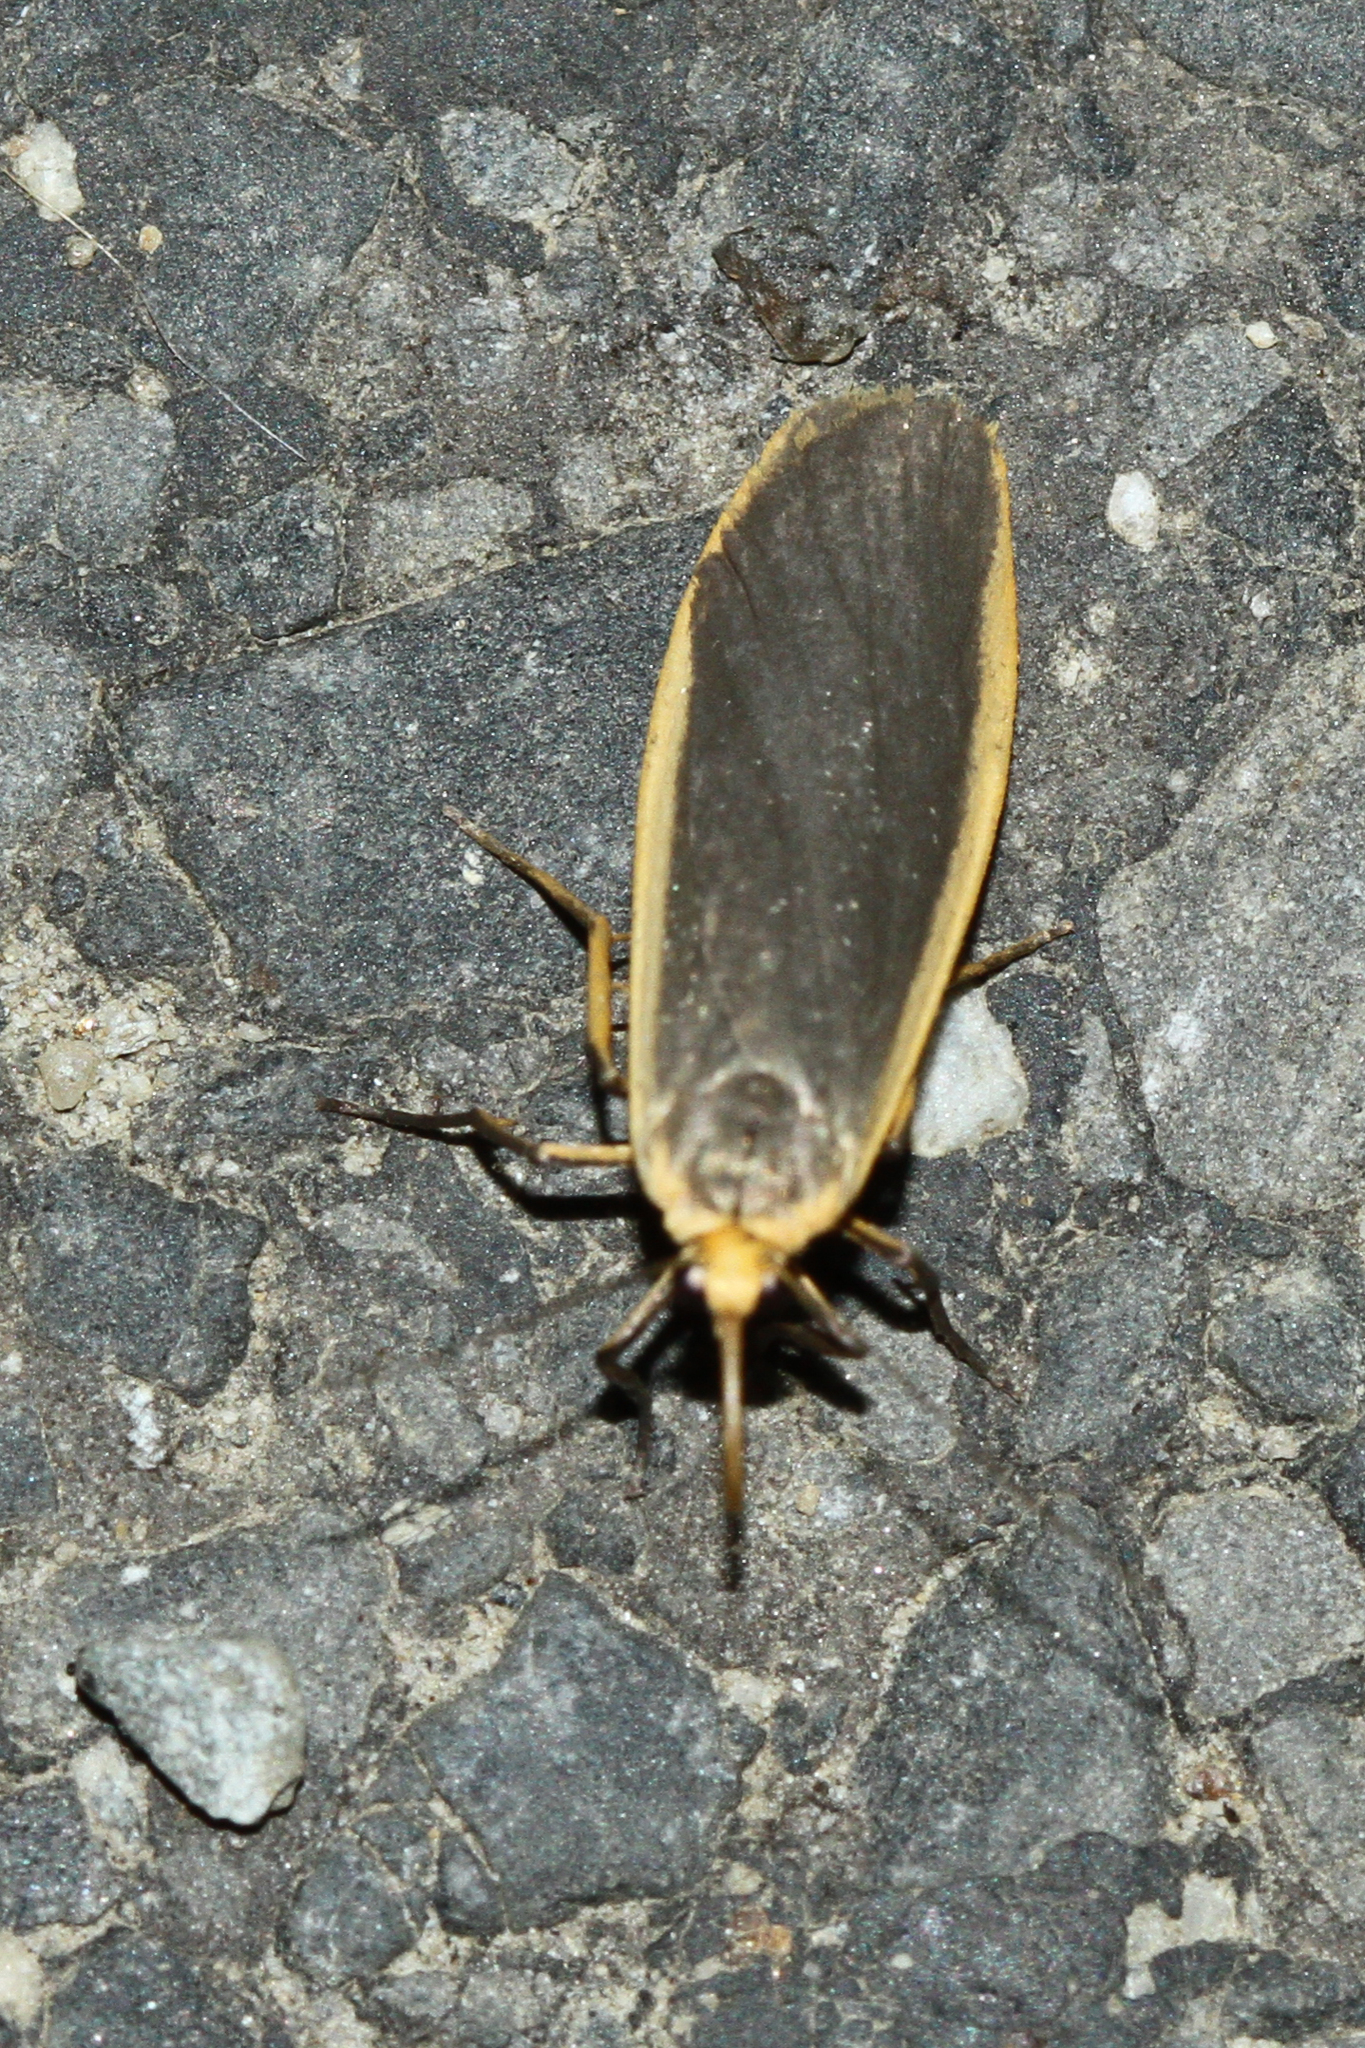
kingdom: Animalia
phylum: Arthropoda
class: Insecta
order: Lepidoptera
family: Erebidae
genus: Nyea
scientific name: Nyea lurideola
